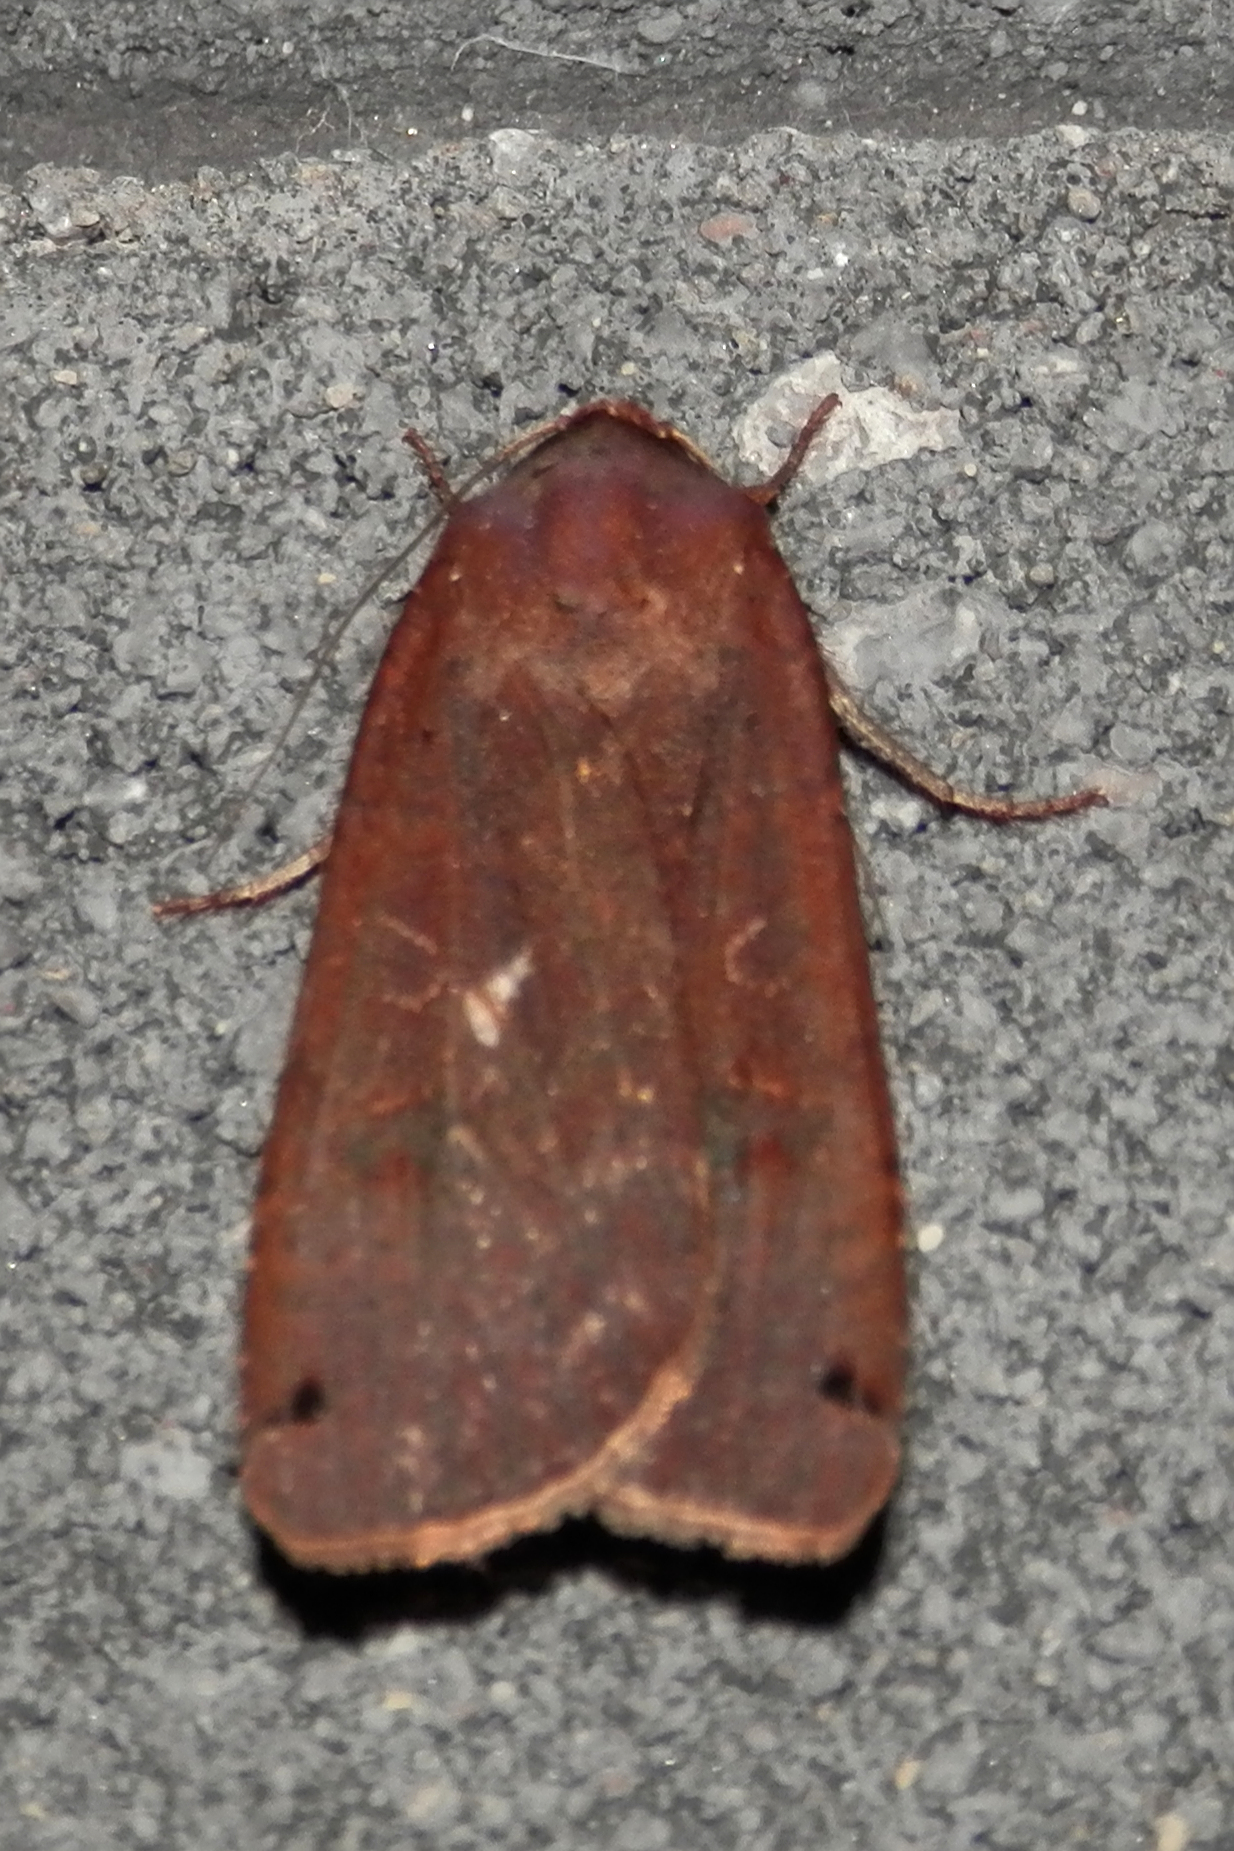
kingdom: Animalia
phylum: Arthropoda
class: Insecta
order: Lepidoptera
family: Noctuidae
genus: Noctua
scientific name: Noctua pronuba
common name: Large yellow underwing
